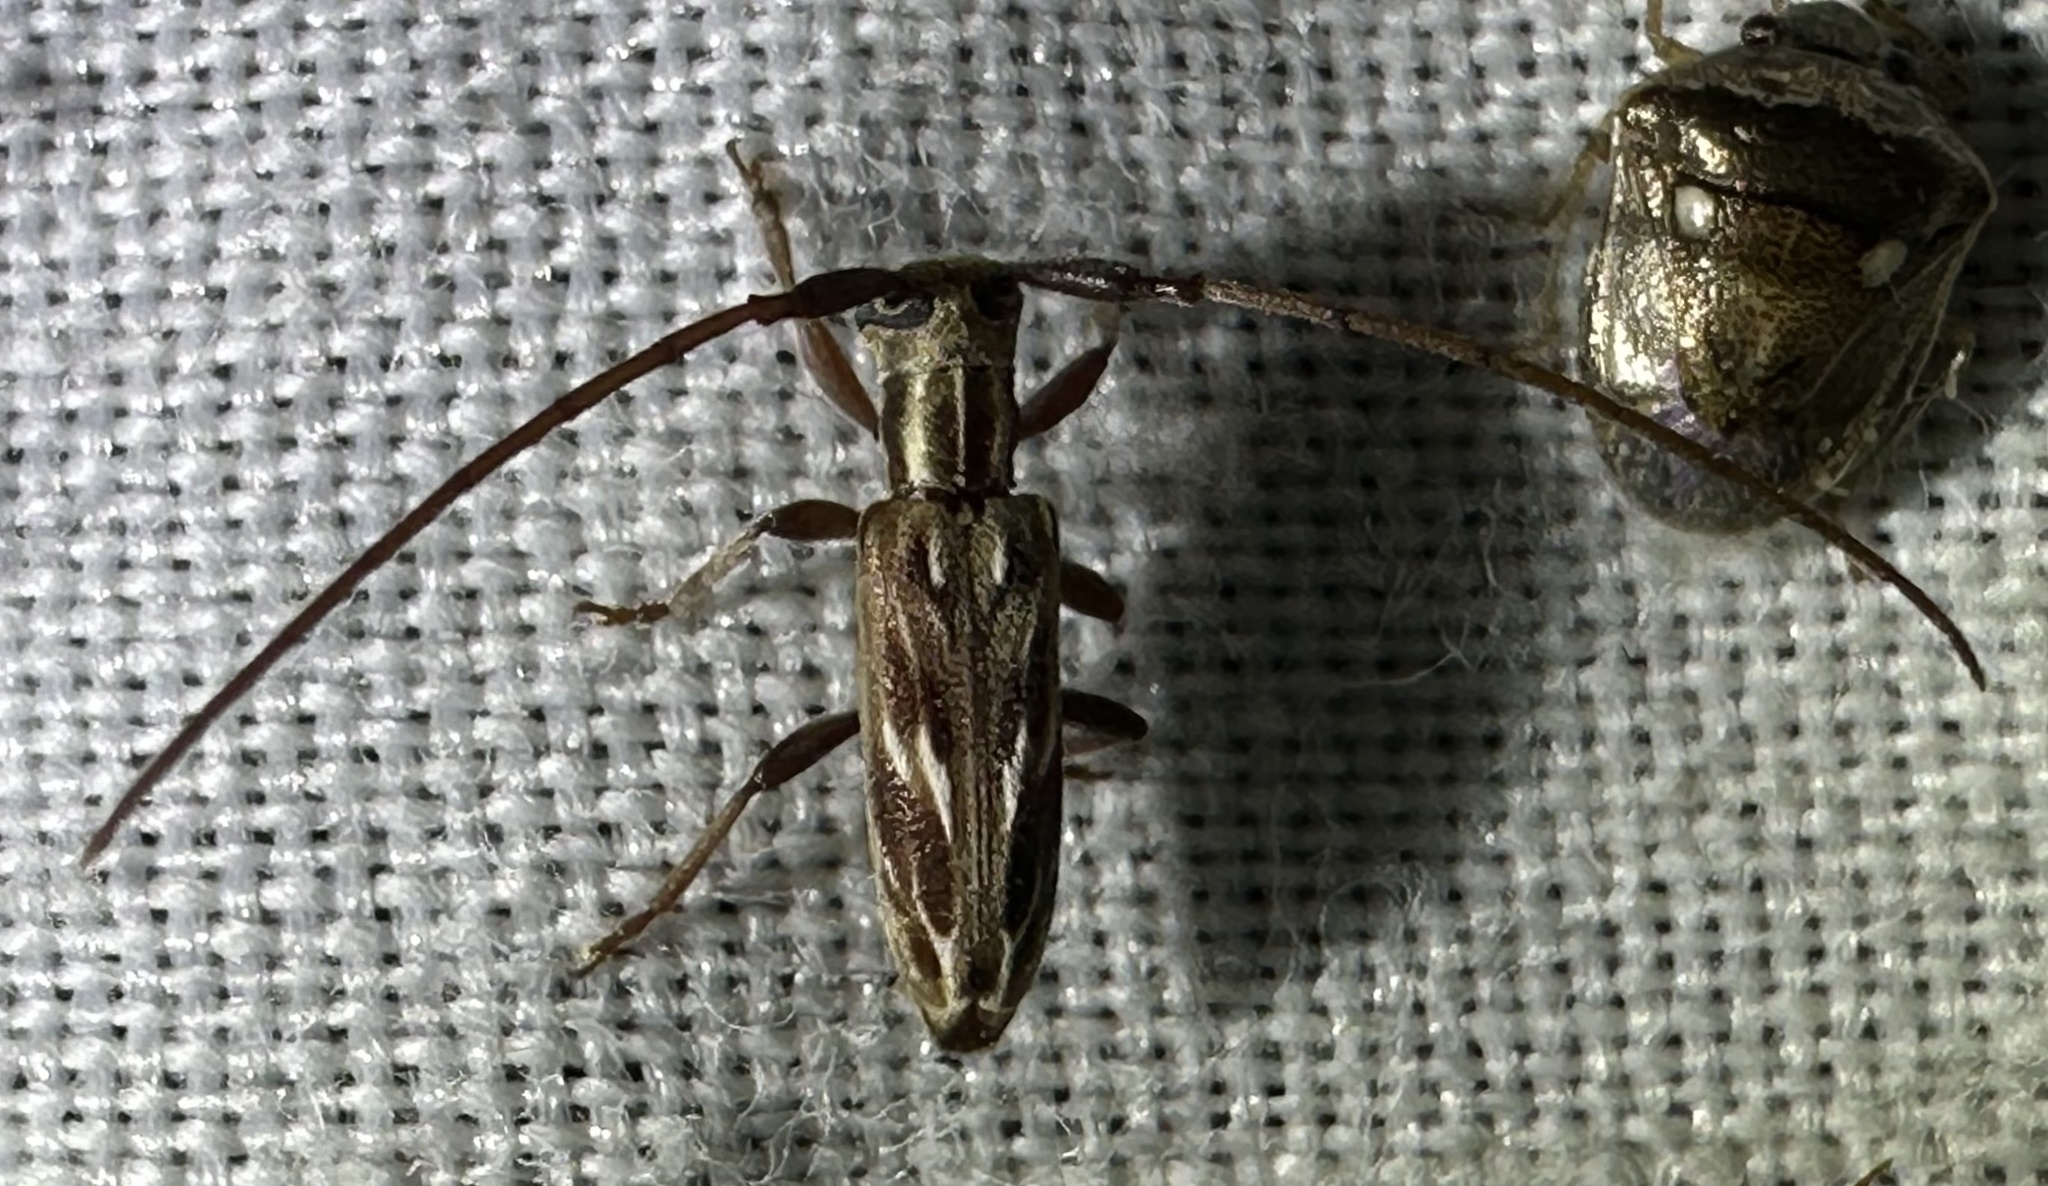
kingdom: Animalia
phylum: Arthropoda
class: Insecta
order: Coleoptera
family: Cerambycidae
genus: Eunidia
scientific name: Eunidia strigata
